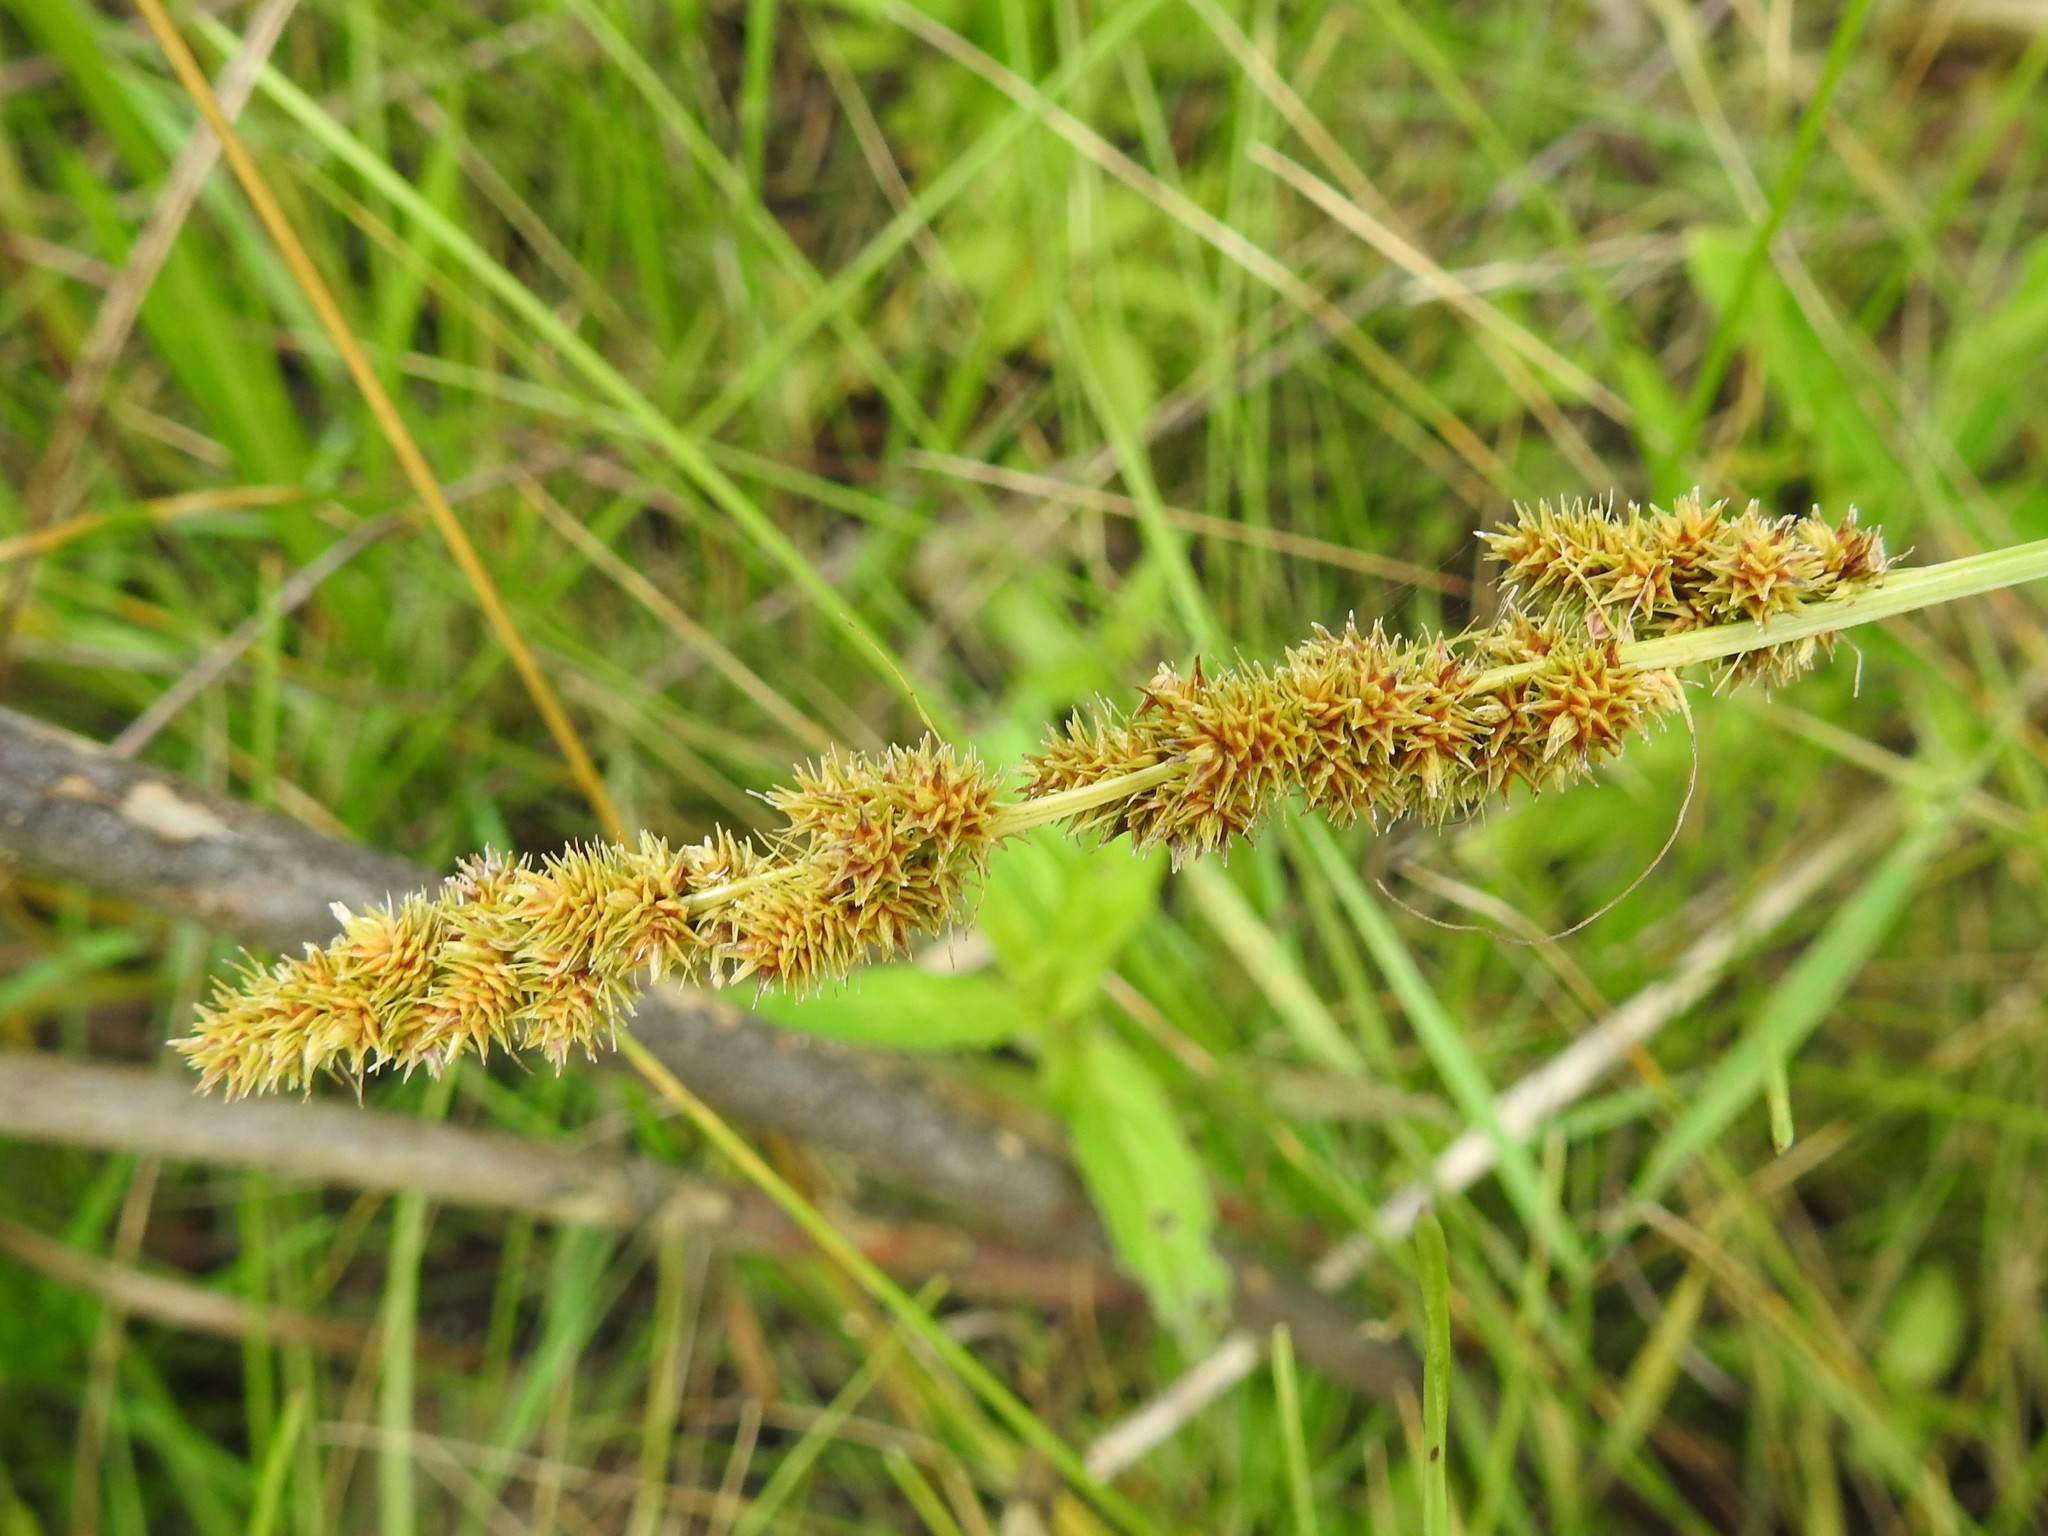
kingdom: Plantae
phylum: Tracheophyta
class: Liliopsida
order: Poales
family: Cyperaceae
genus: Carex
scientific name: Carex vulpinoidea
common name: American fox-sedge
